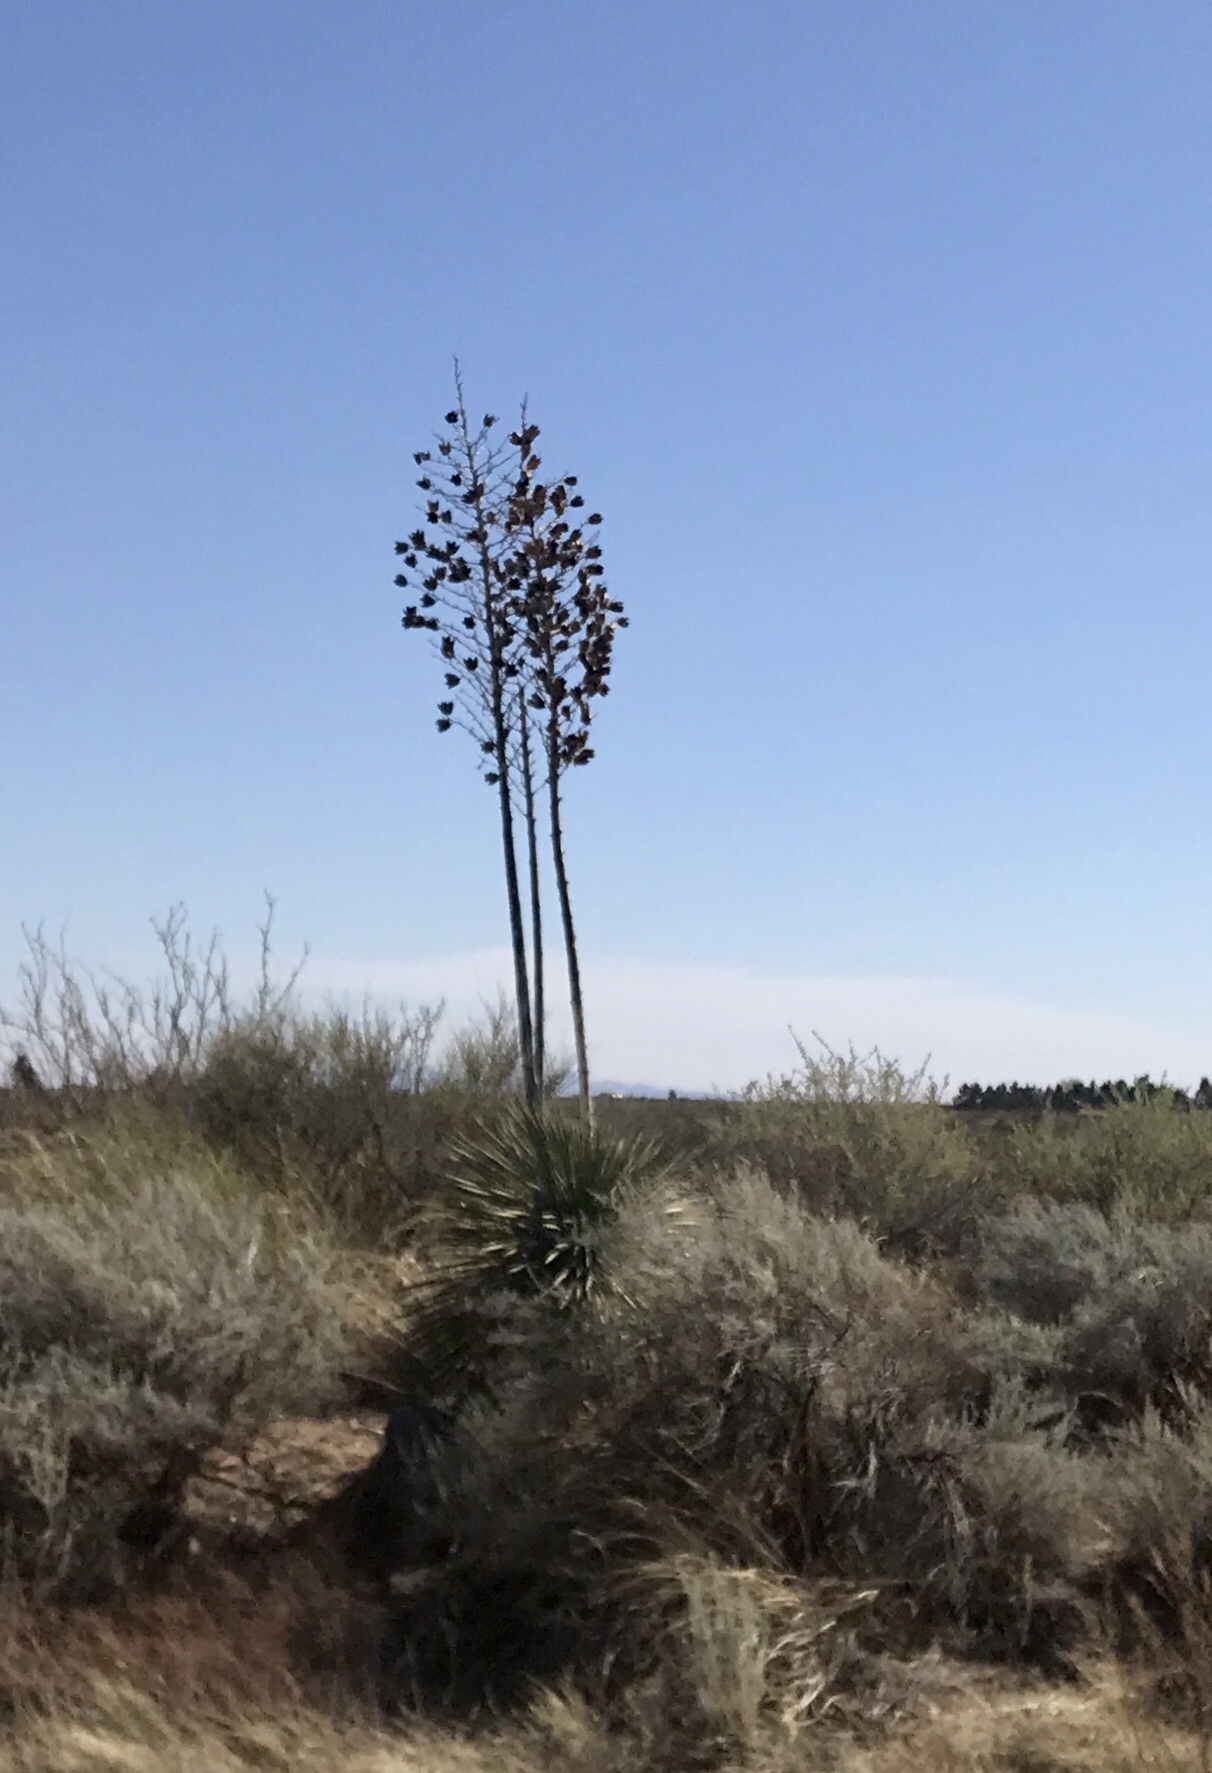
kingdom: Plantae
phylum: Tracheophyta
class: Liliopsida
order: Asparagales
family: Asparagaceae
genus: Yucca
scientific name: Yucca elata
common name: Palmella
